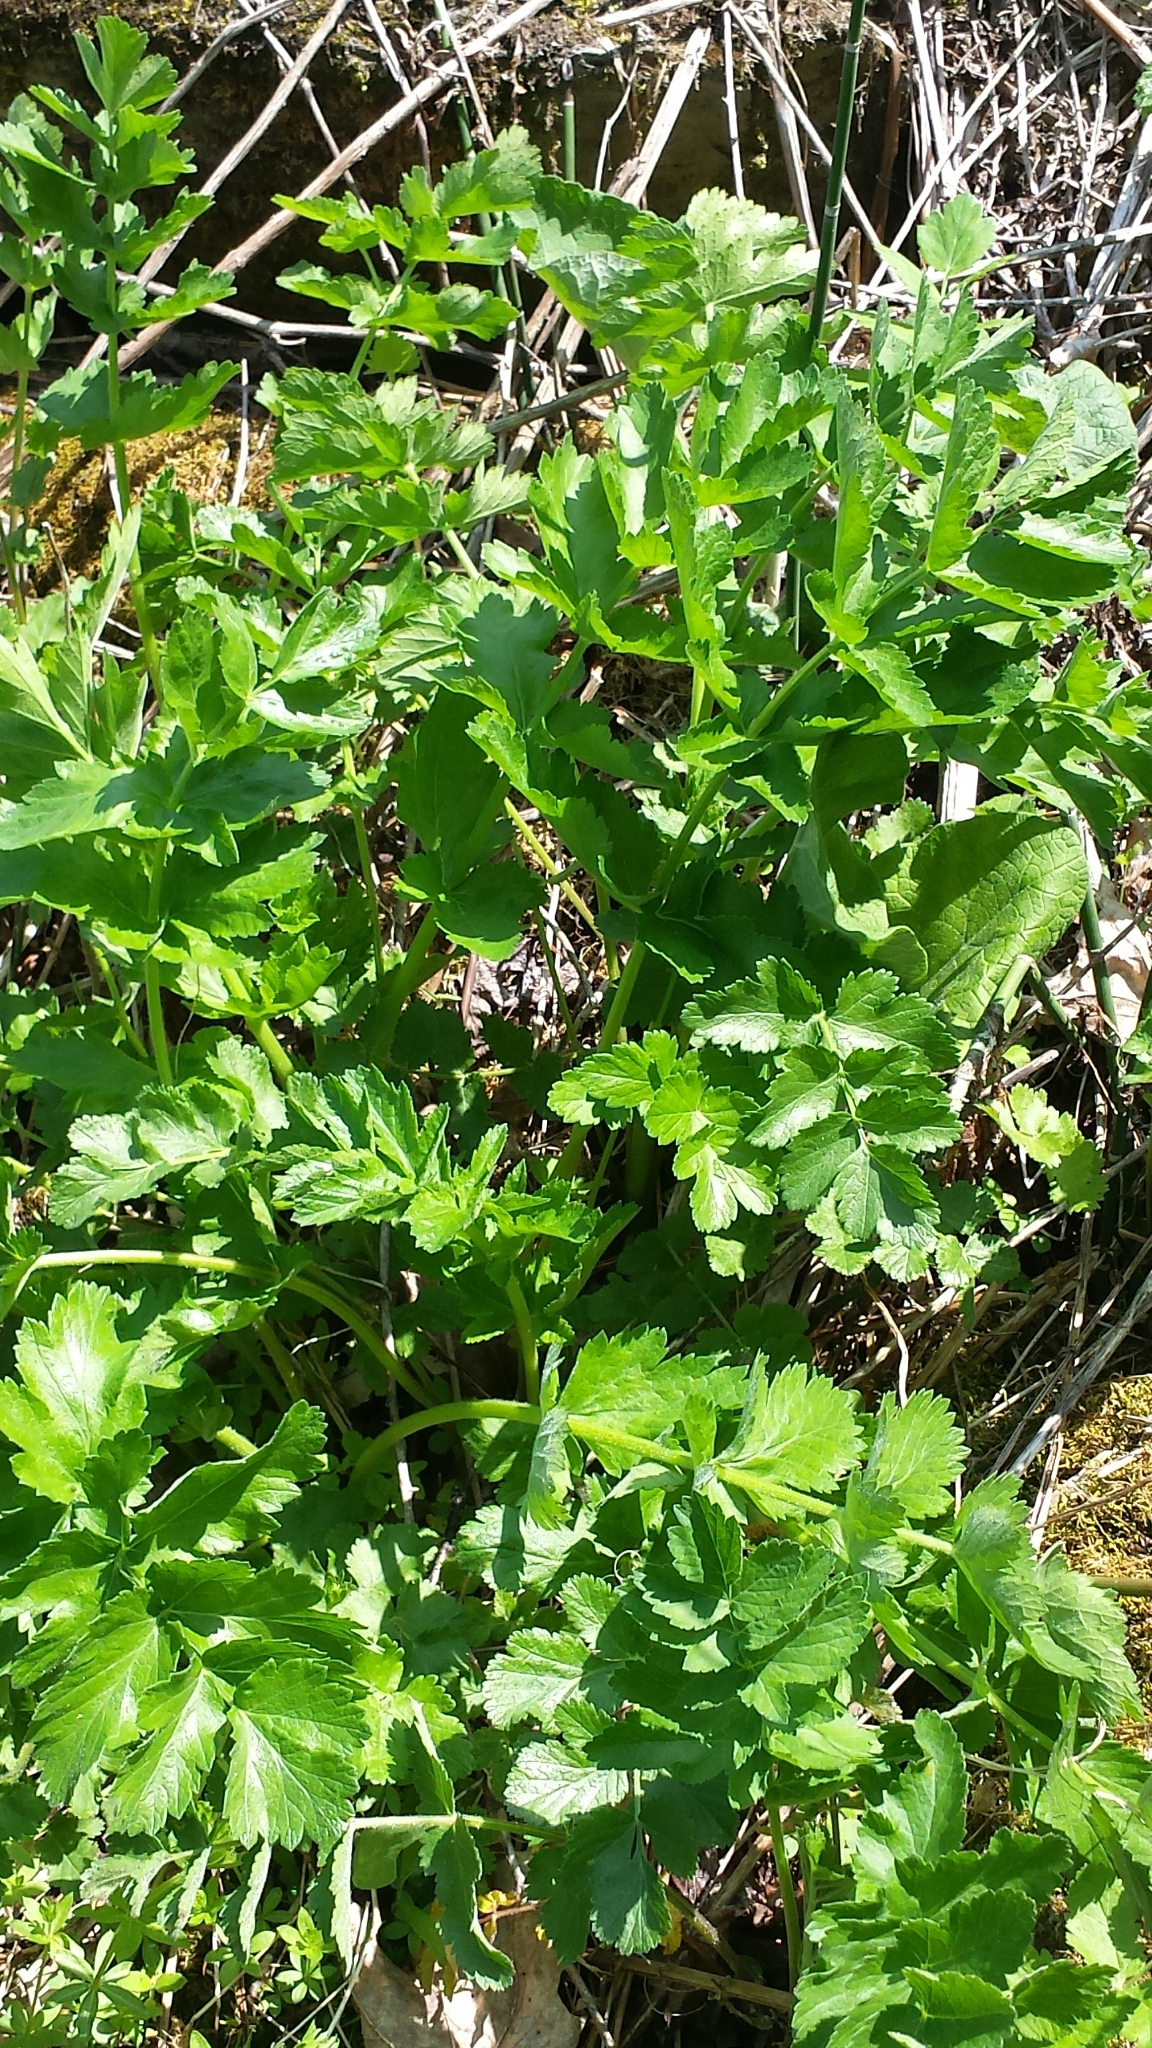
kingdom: Plantae
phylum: Tracheophyta
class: Magnoliopsida
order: Apiales
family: Apiaceae
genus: Pastinaca
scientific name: Pastinaca sativa
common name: Wild parsnip
